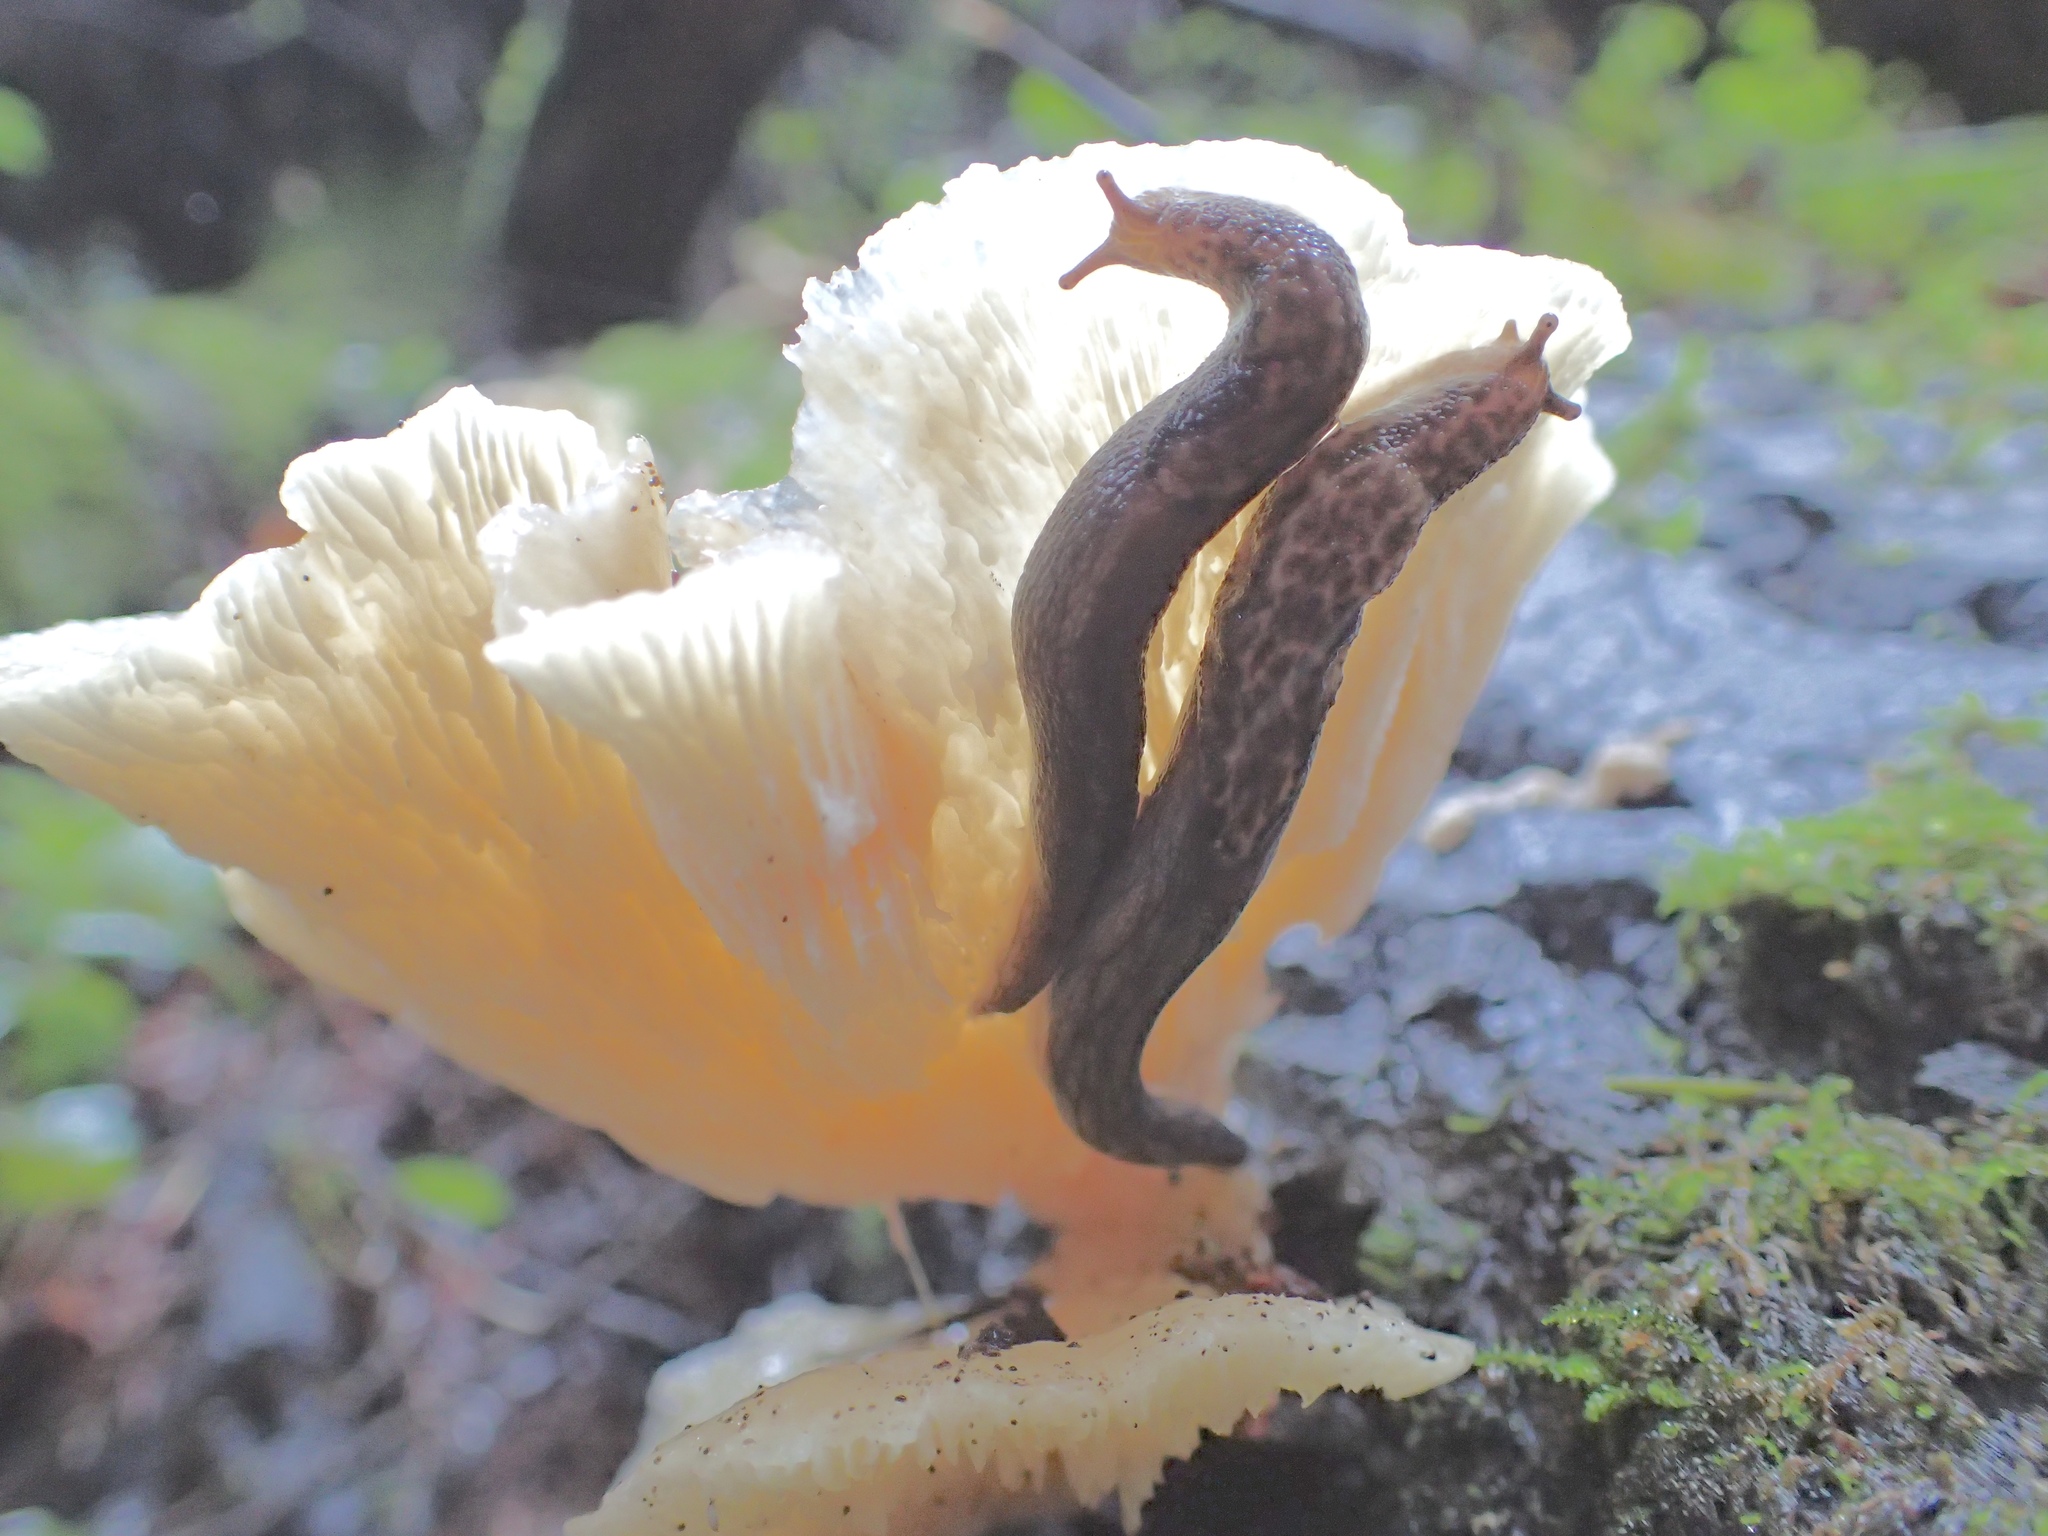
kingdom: Animalia
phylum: Mollusca
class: Gastropoda
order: Stylommatophora
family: Ariolimacidae
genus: Prophysaon
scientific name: Prophysaon andersonii
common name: Reticulate taildropper
